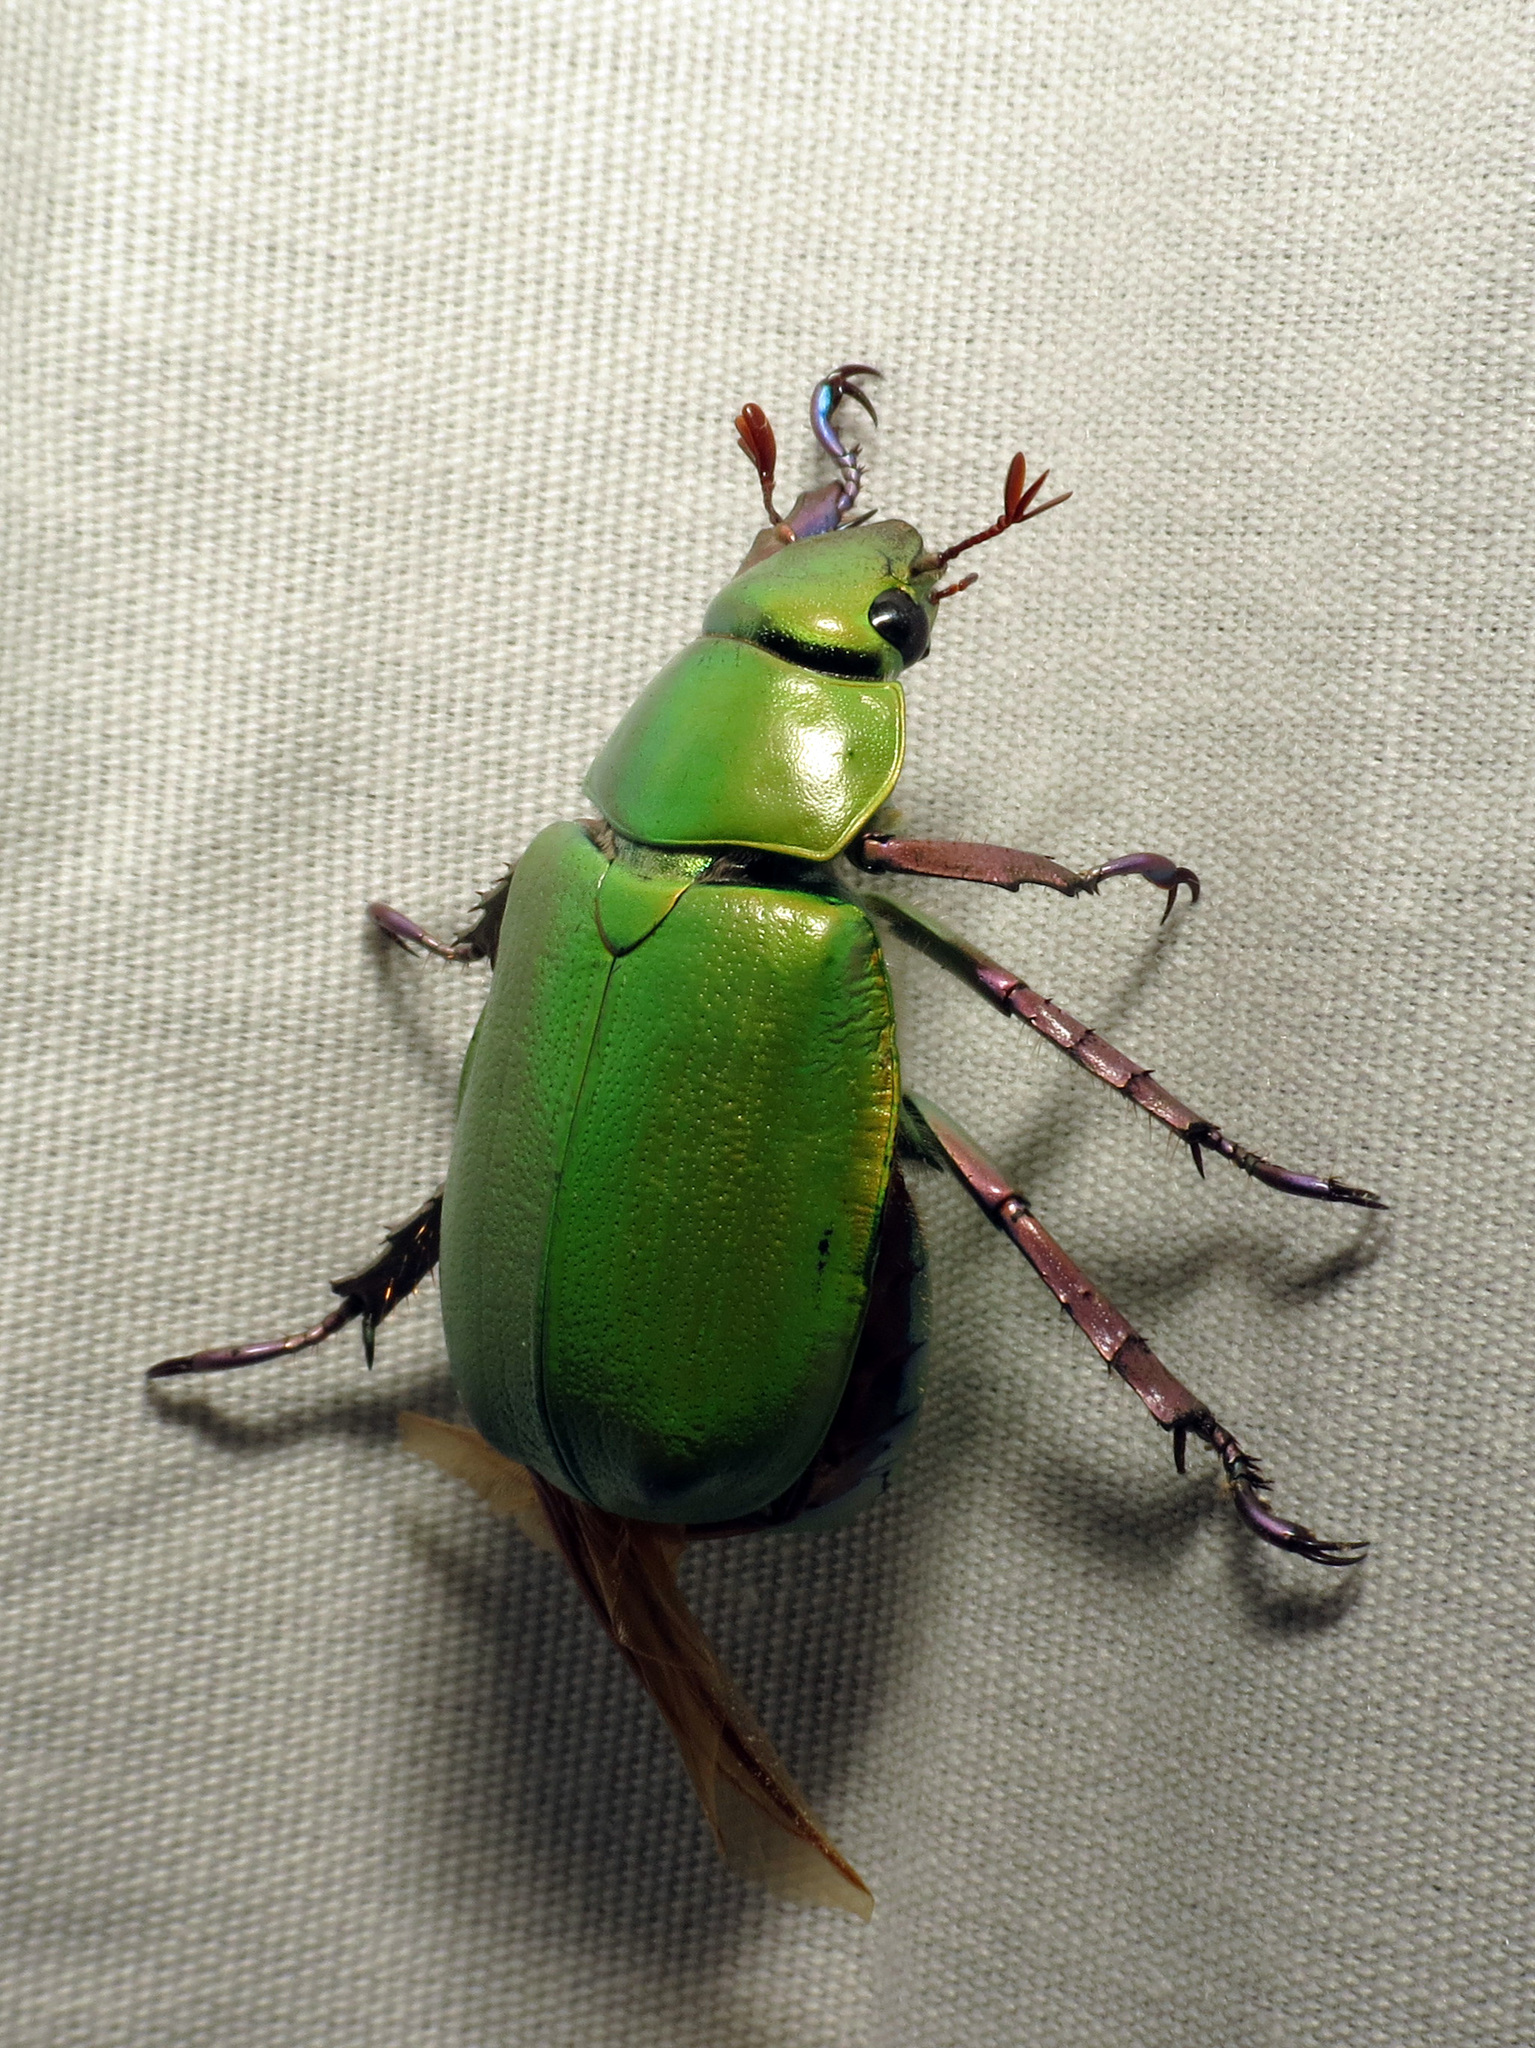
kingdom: Animalia
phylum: Arthropoda
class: Insecta
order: Coleoptera
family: Scarabaeidae
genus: Chrysina
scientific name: Chrysina beyeri
